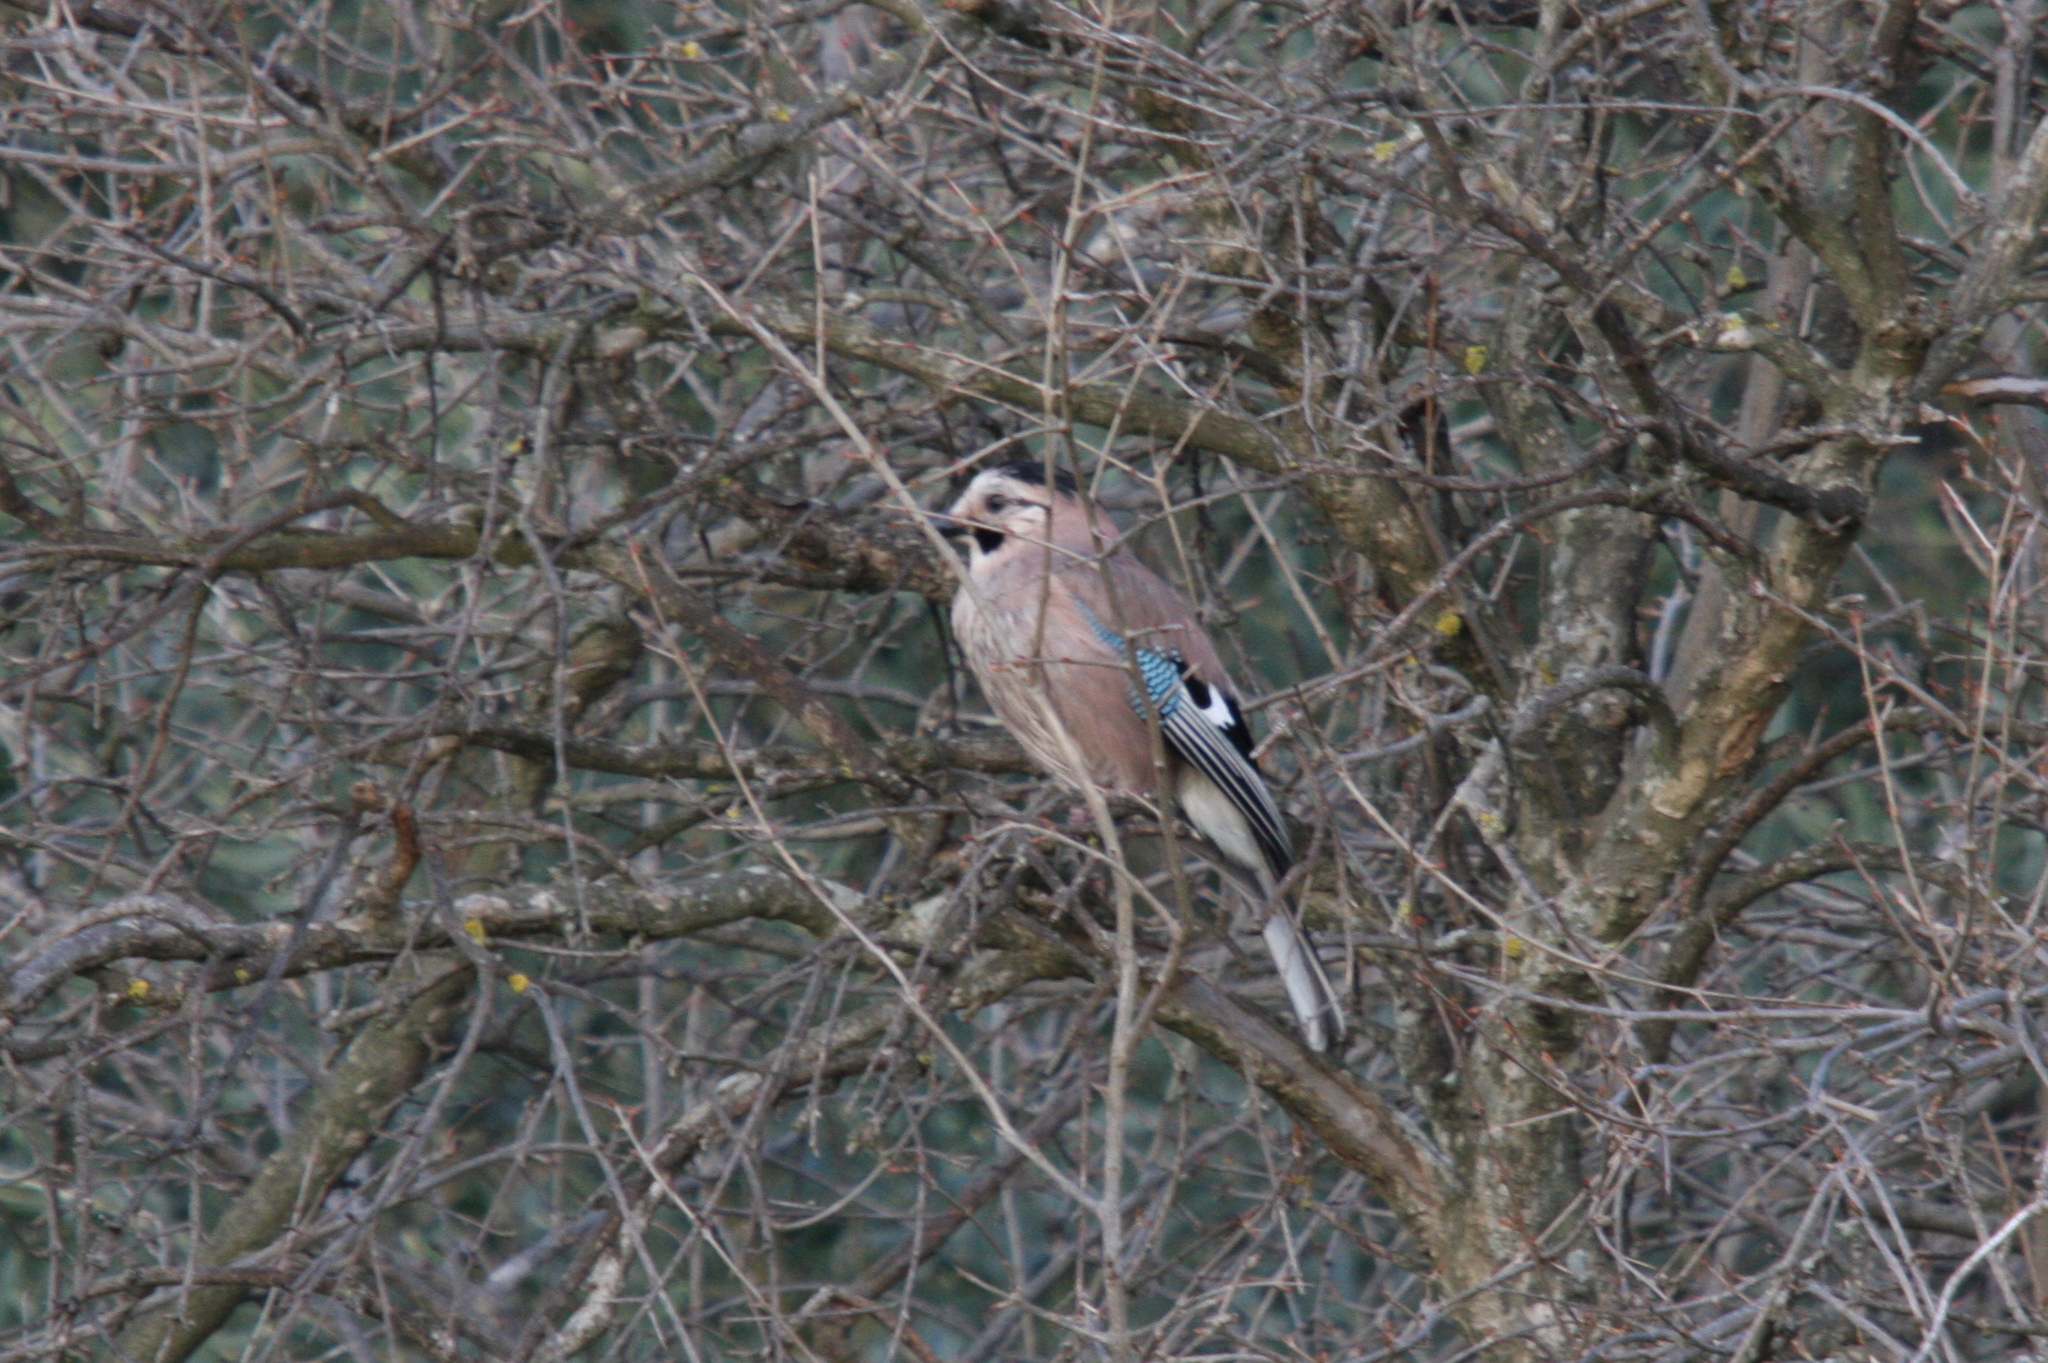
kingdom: Animalia
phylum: Chordata
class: Aves
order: Passeriformes
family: Corvidae
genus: Garrulus
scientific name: Garrulus glandarius
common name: Eurasian jay
